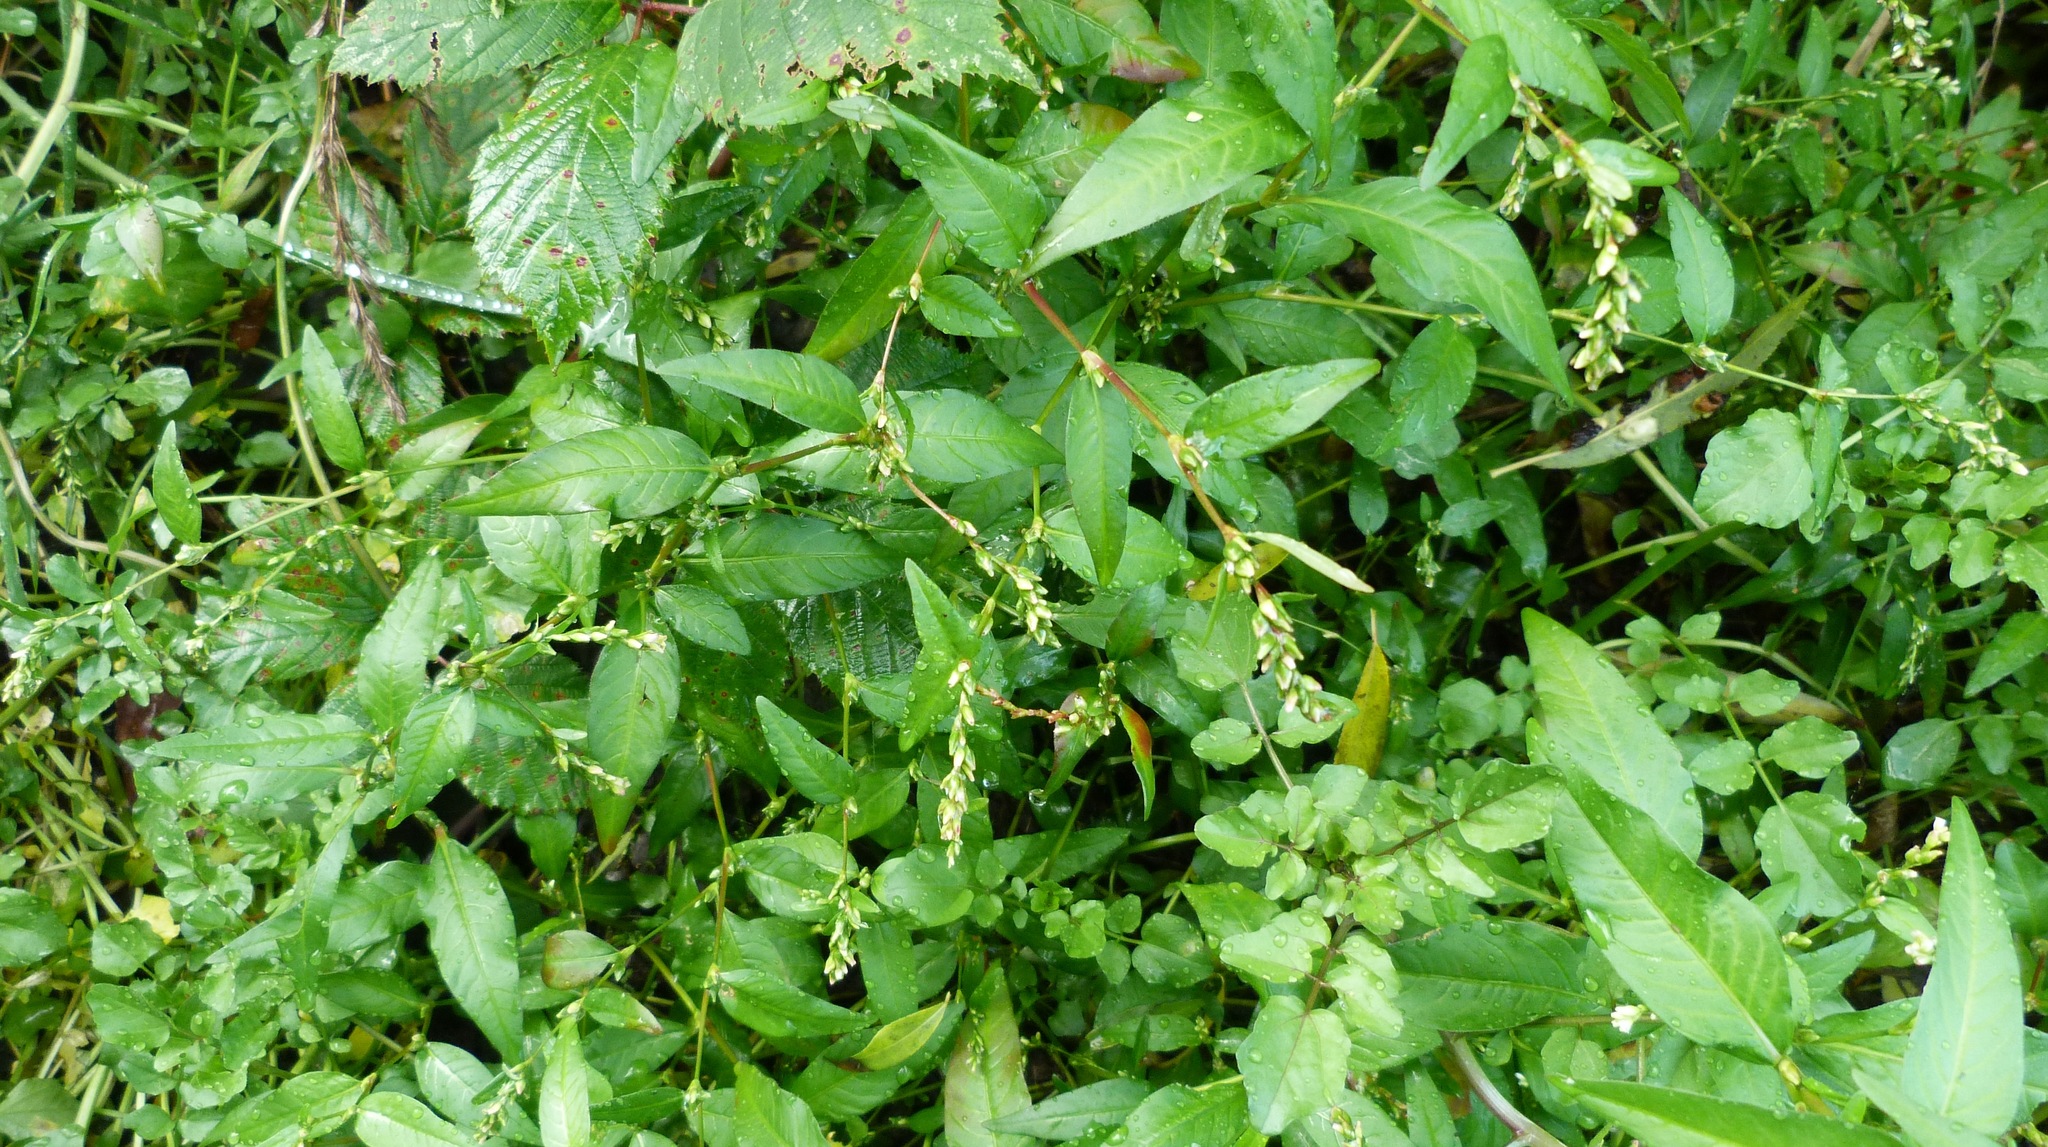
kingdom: Plantae
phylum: Tracheophyta
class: Magnoliopsida
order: Caryophyllales
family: Polygonaceae
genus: Persicaria
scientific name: Persicaria decipiens
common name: Willow-weed
